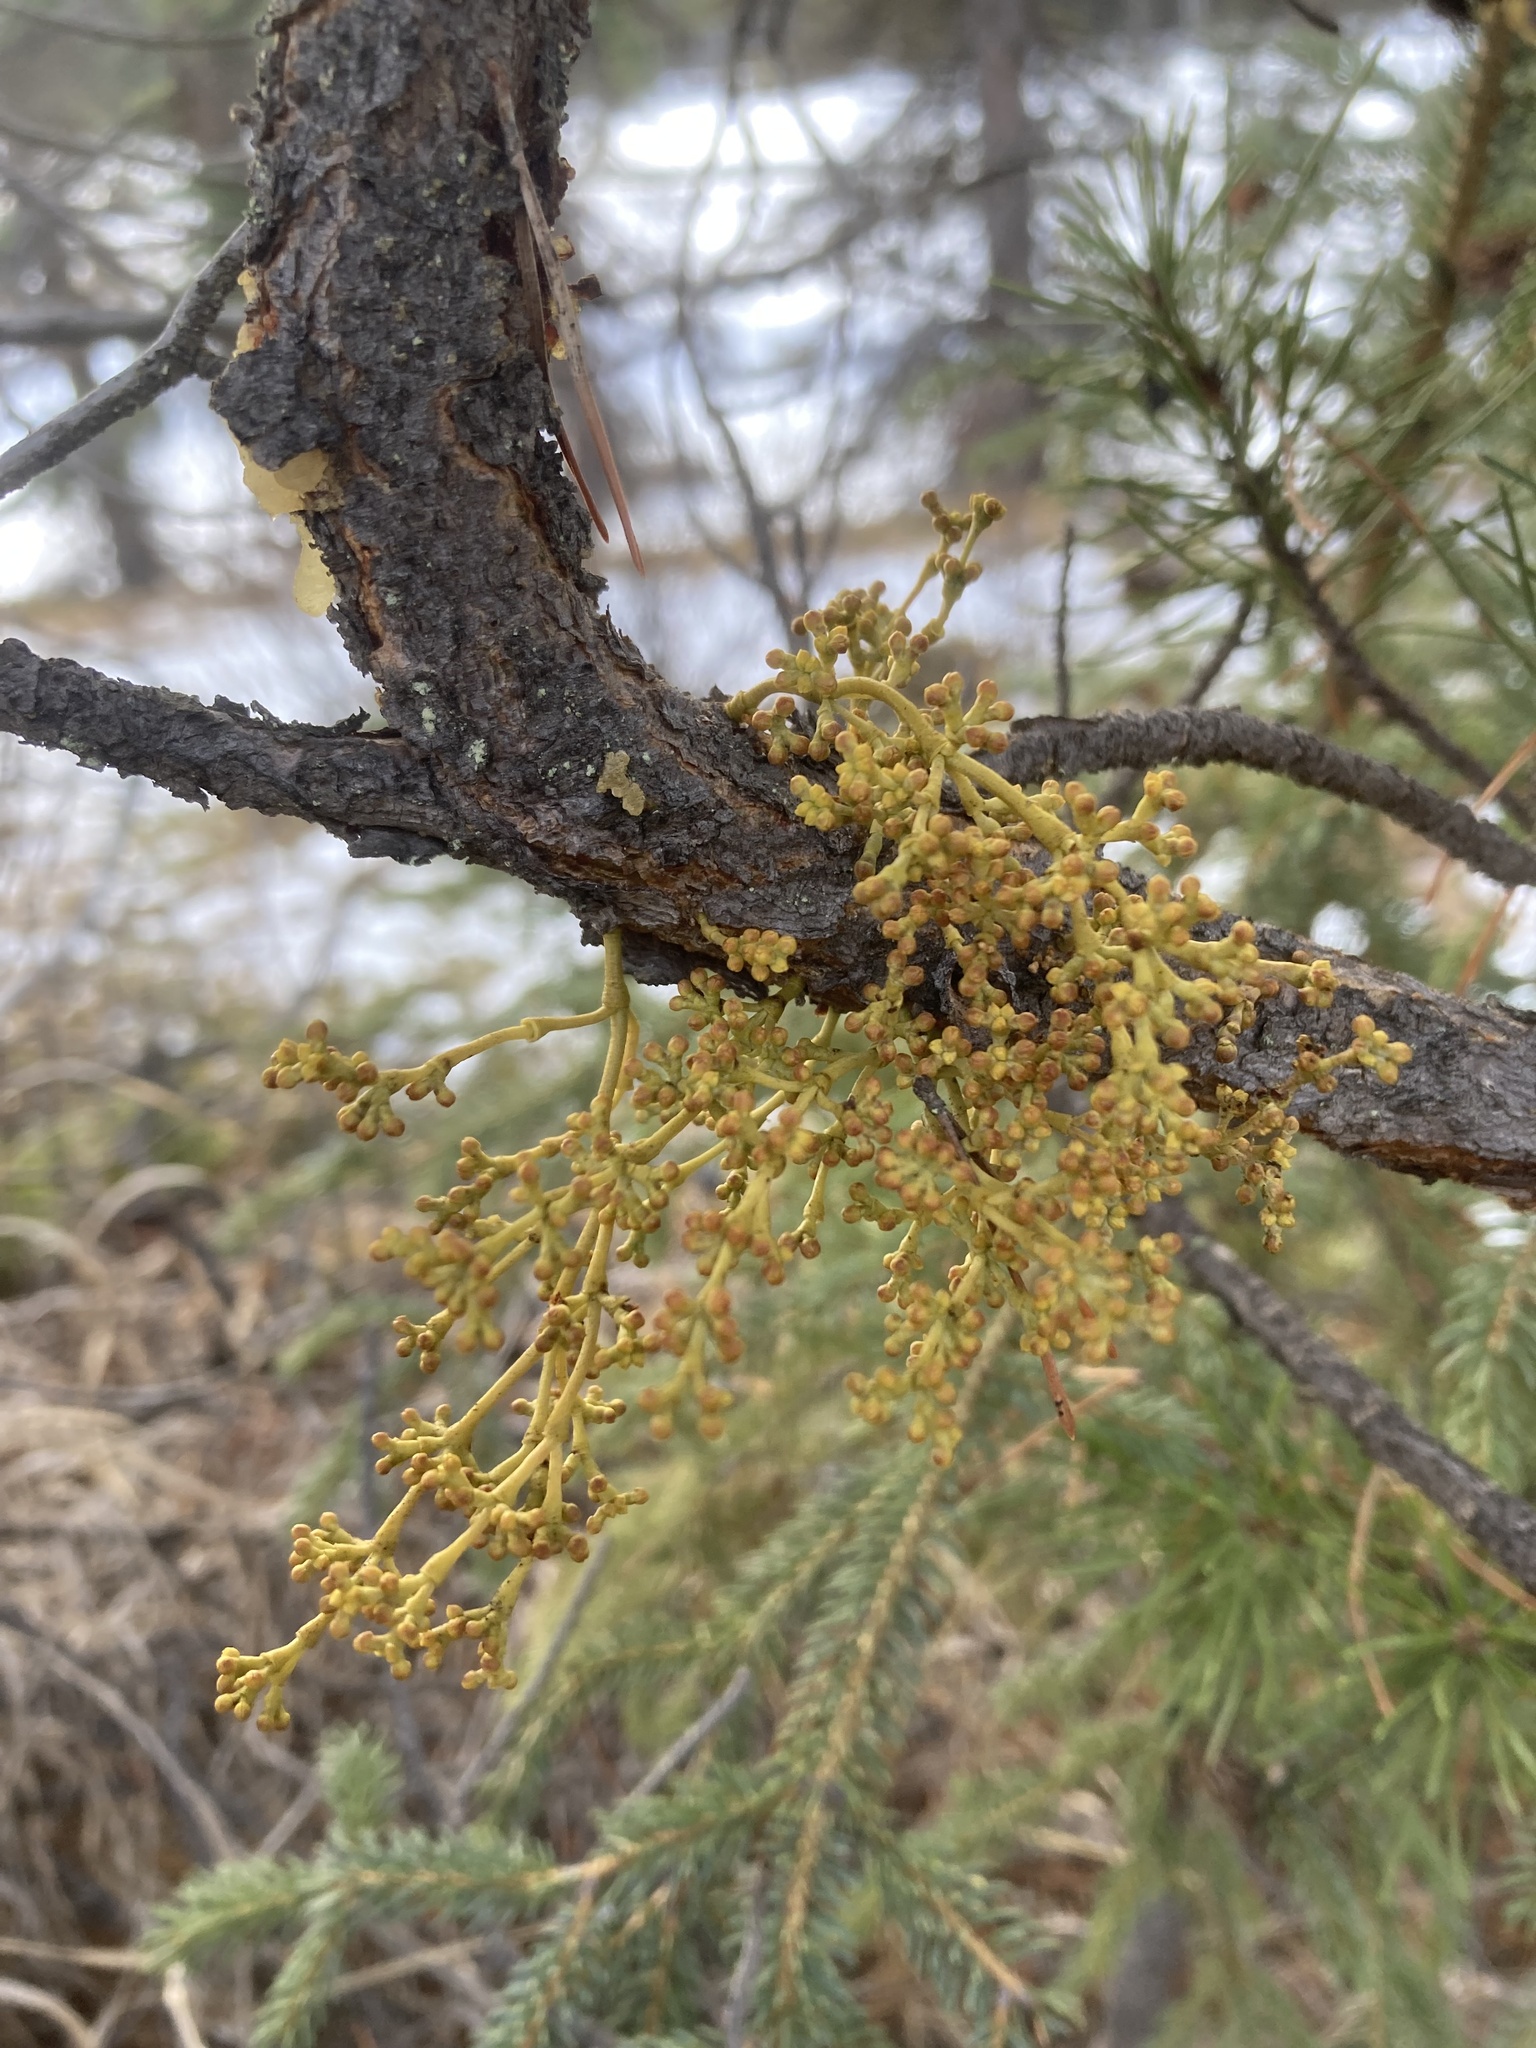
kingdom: Plantae
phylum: Tracheophyta
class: Magnoliopsida
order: Santalales
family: Viscaceae
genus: Arceuthobium
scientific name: Arceuthobium americanum
